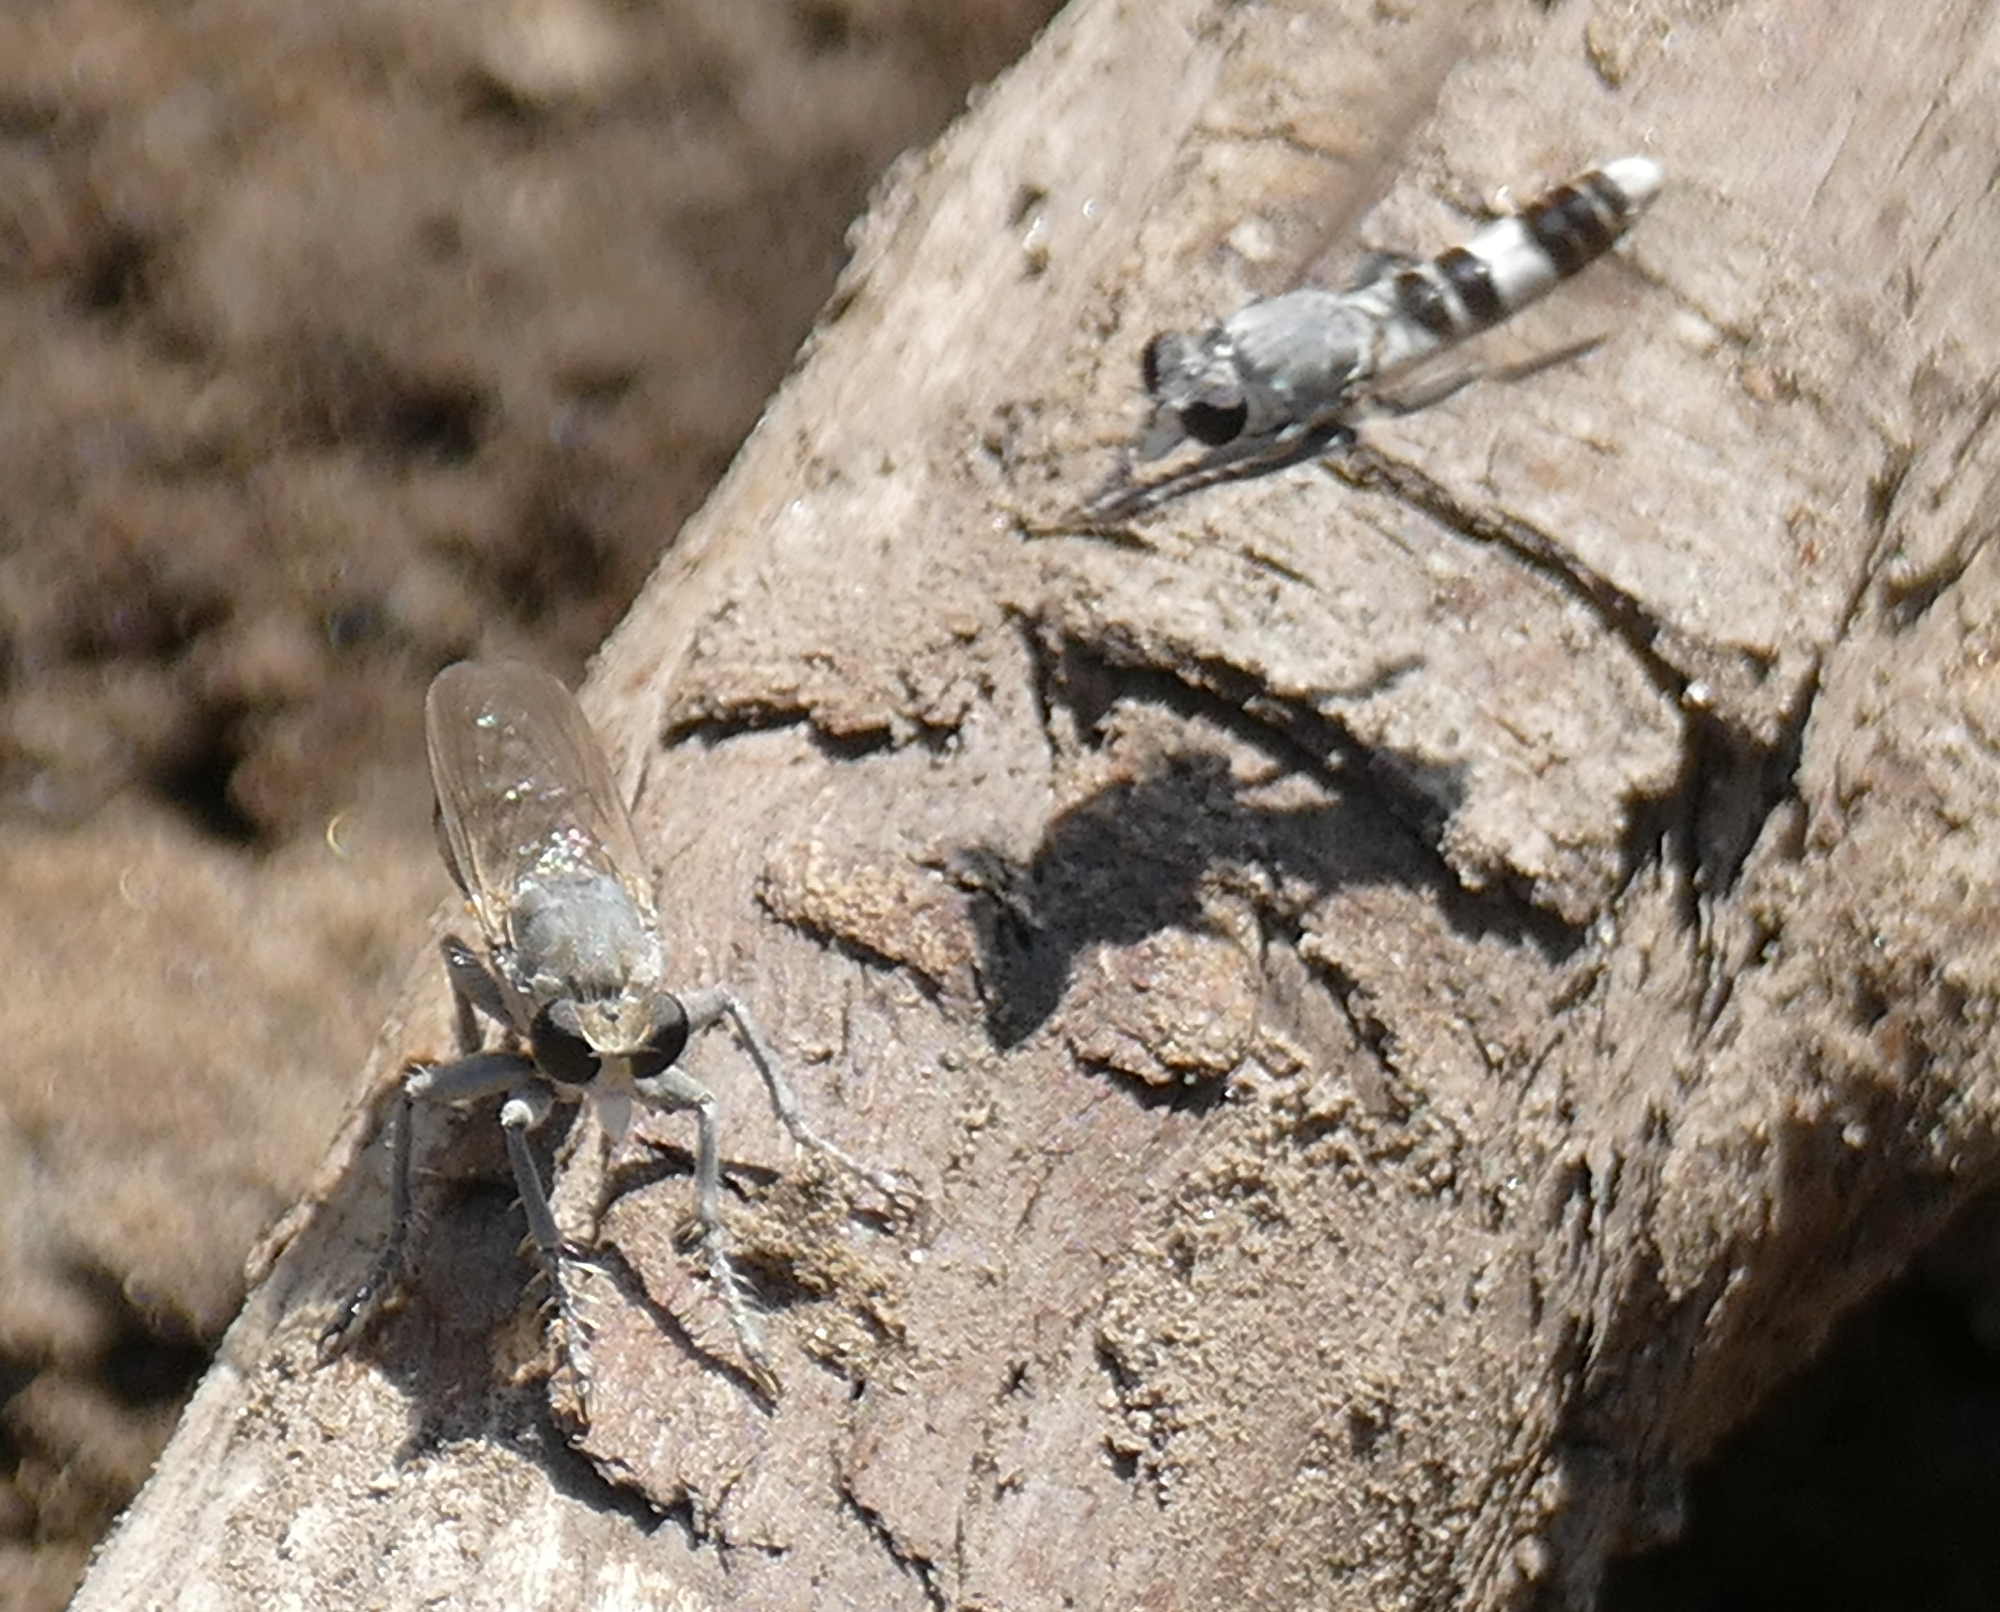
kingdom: Animalia
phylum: Arthropoda
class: Insecta
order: Diptera
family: Asilidae
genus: Stichopogon
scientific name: Stichopogon trifasciatus
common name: Three-banded robber fly
